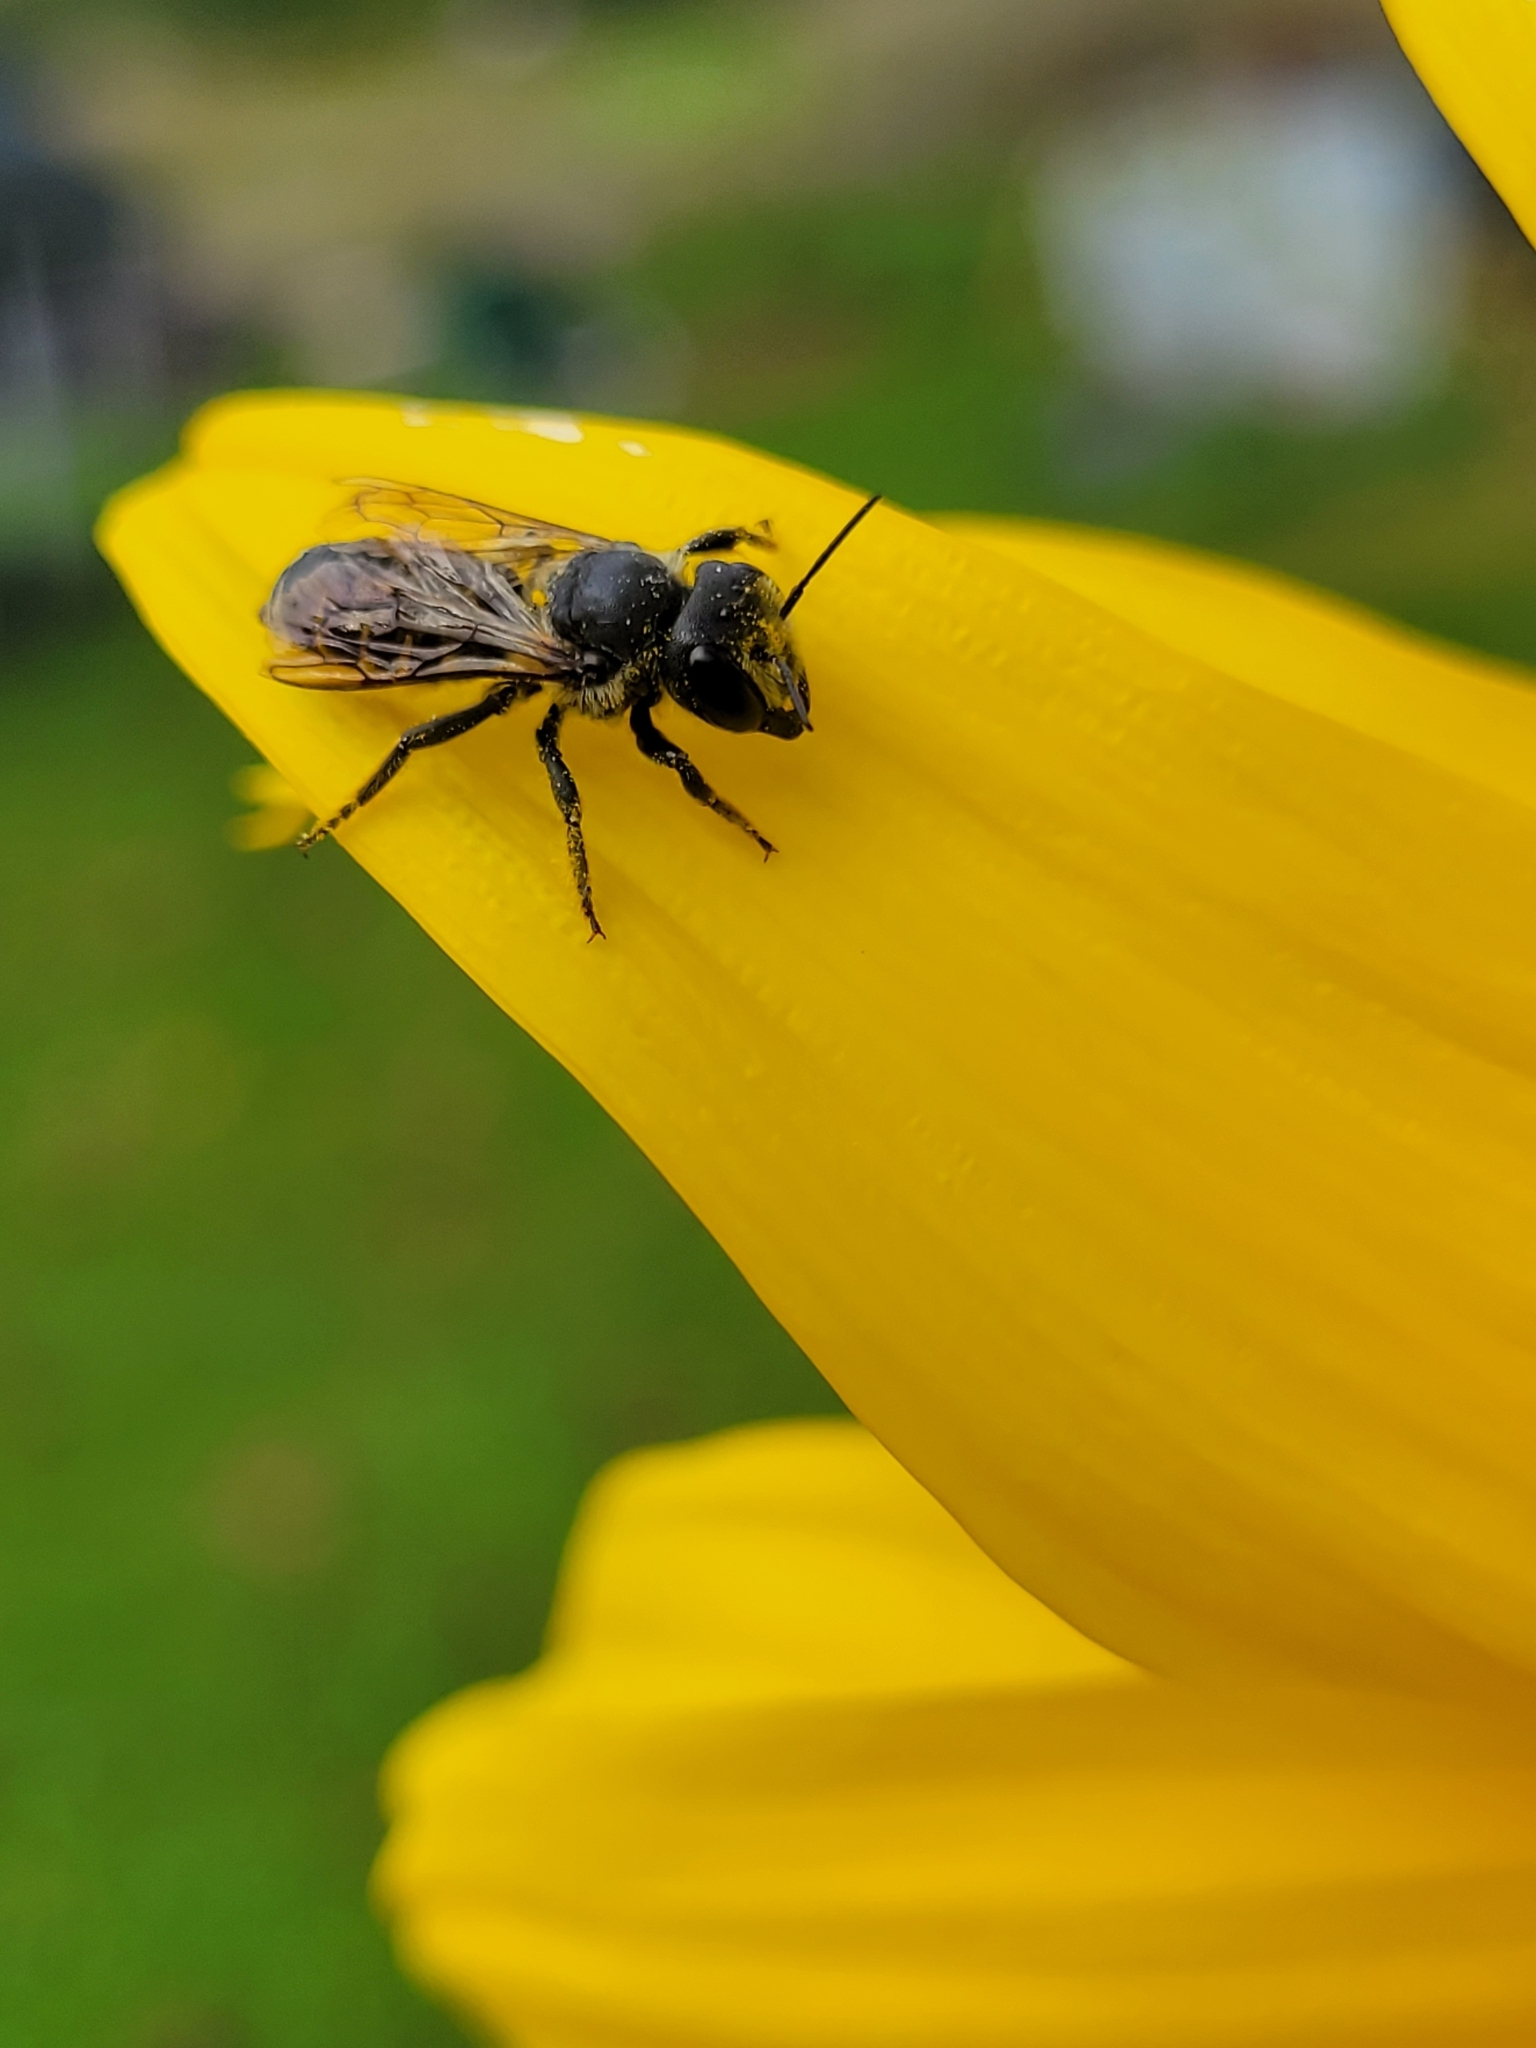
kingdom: Animalia
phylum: Arthropoda
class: Insecta
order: Hymenoptera
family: Megachilidae
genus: Megachile
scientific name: Megachile montivaga
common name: Silver-tailed petalcutter bee
